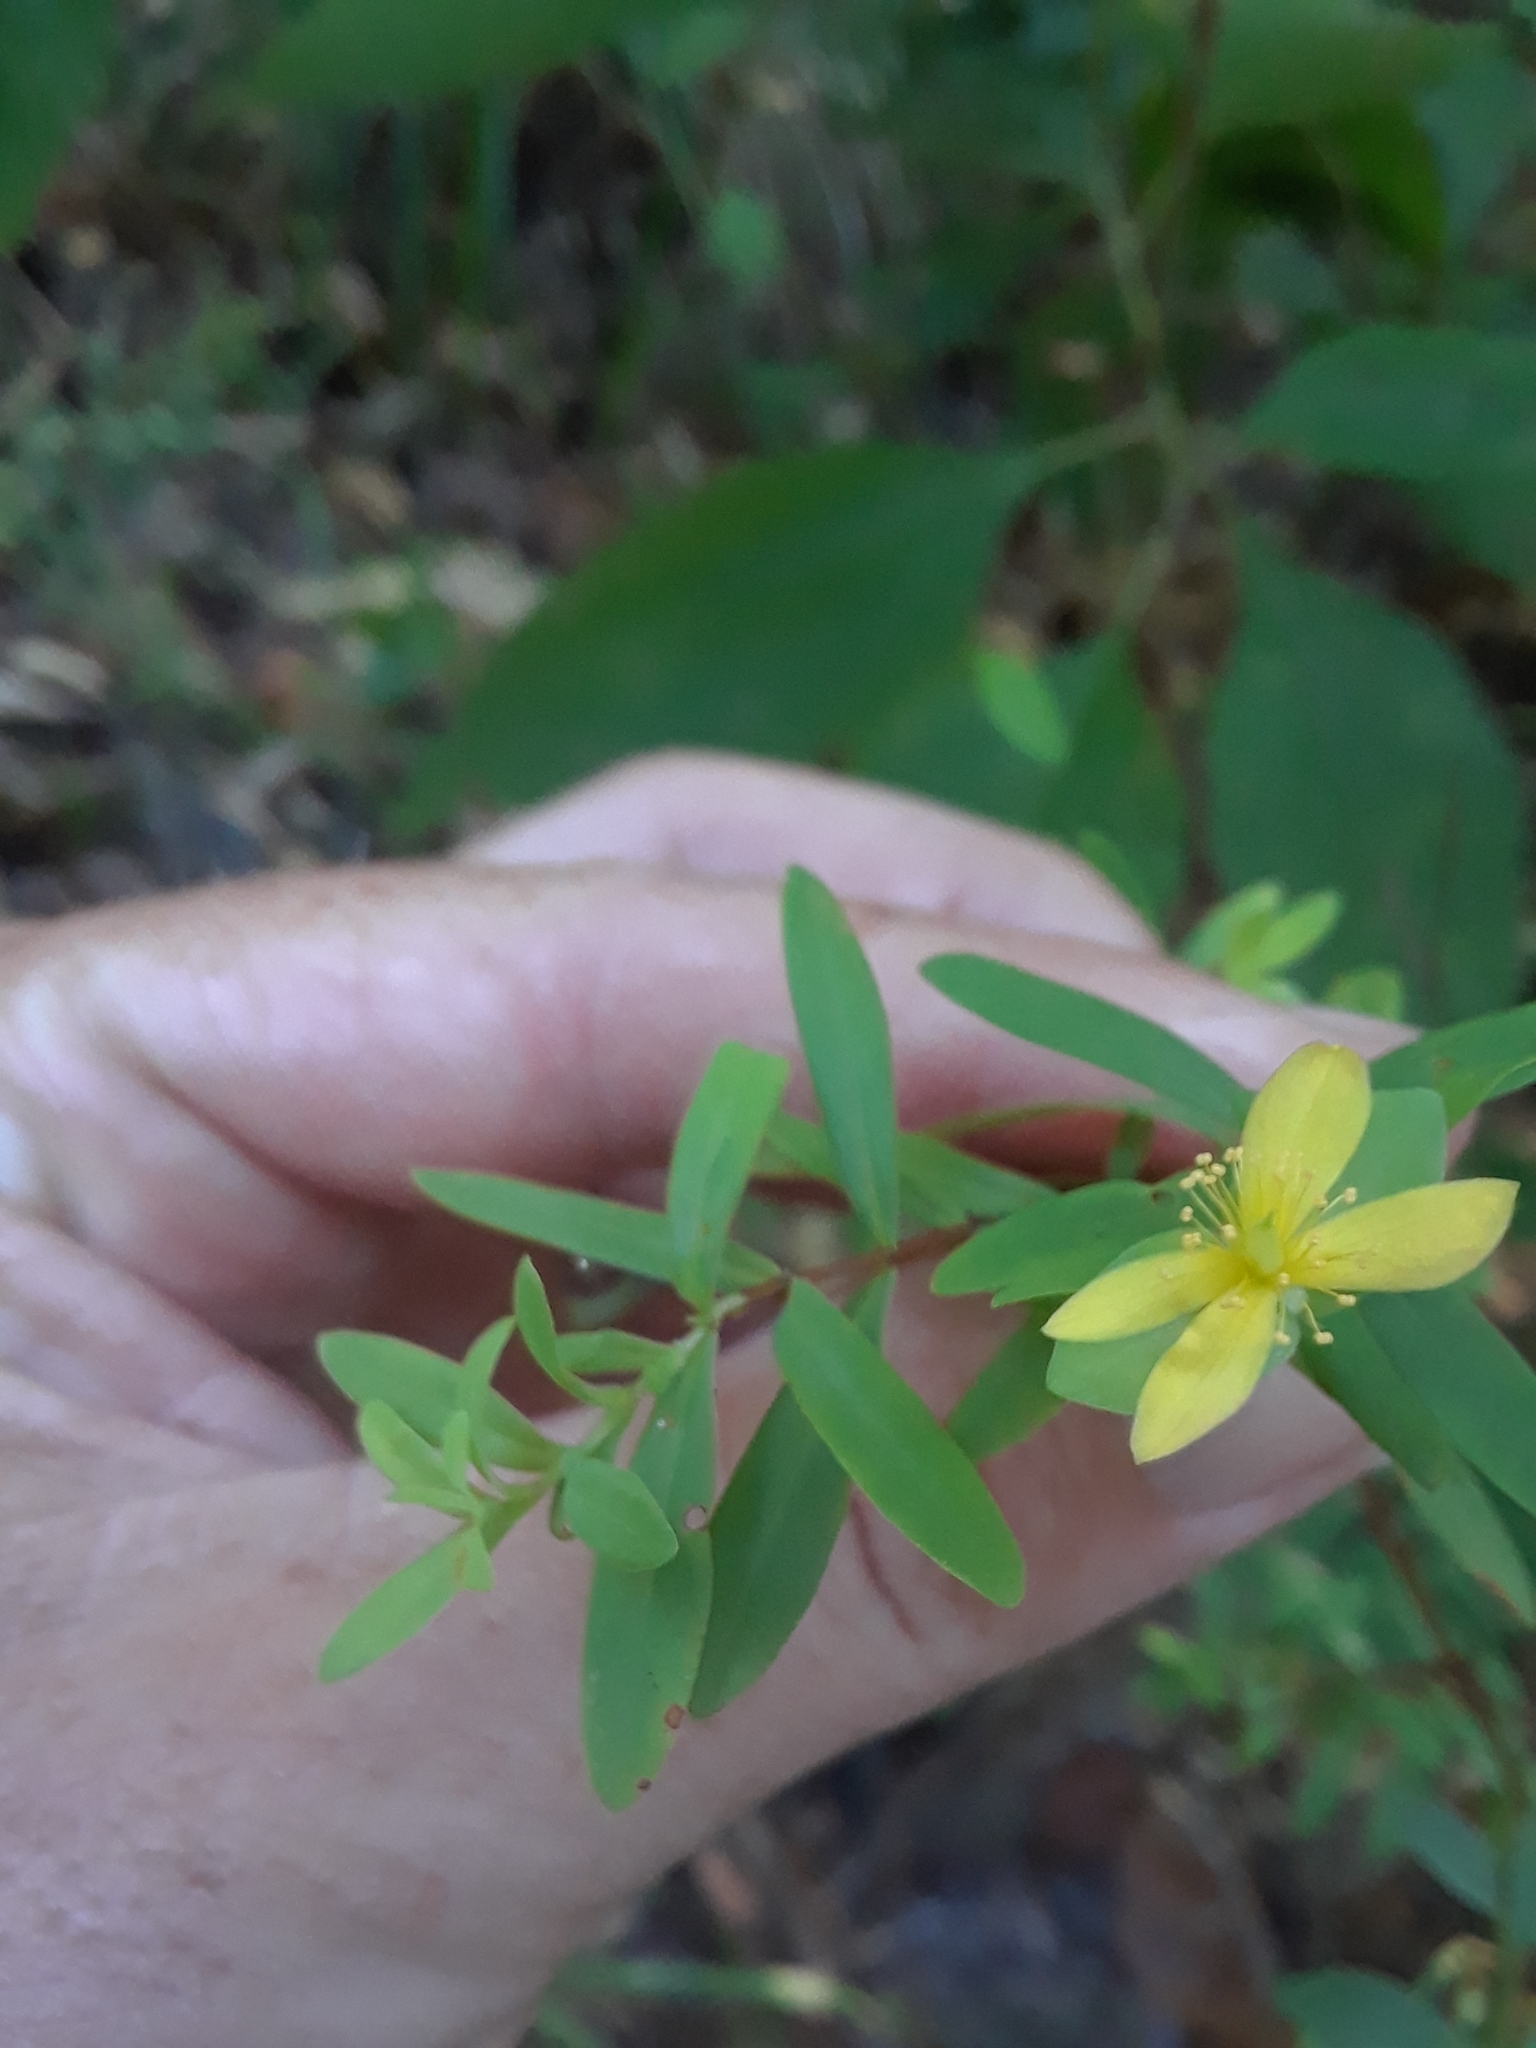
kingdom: Plantae
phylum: Tracheophyta
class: Magnoliopsida
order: Malpighiales
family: Hypericaceae
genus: Hypericum
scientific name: Hypericum hypericoides
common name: St. andrew's cross
